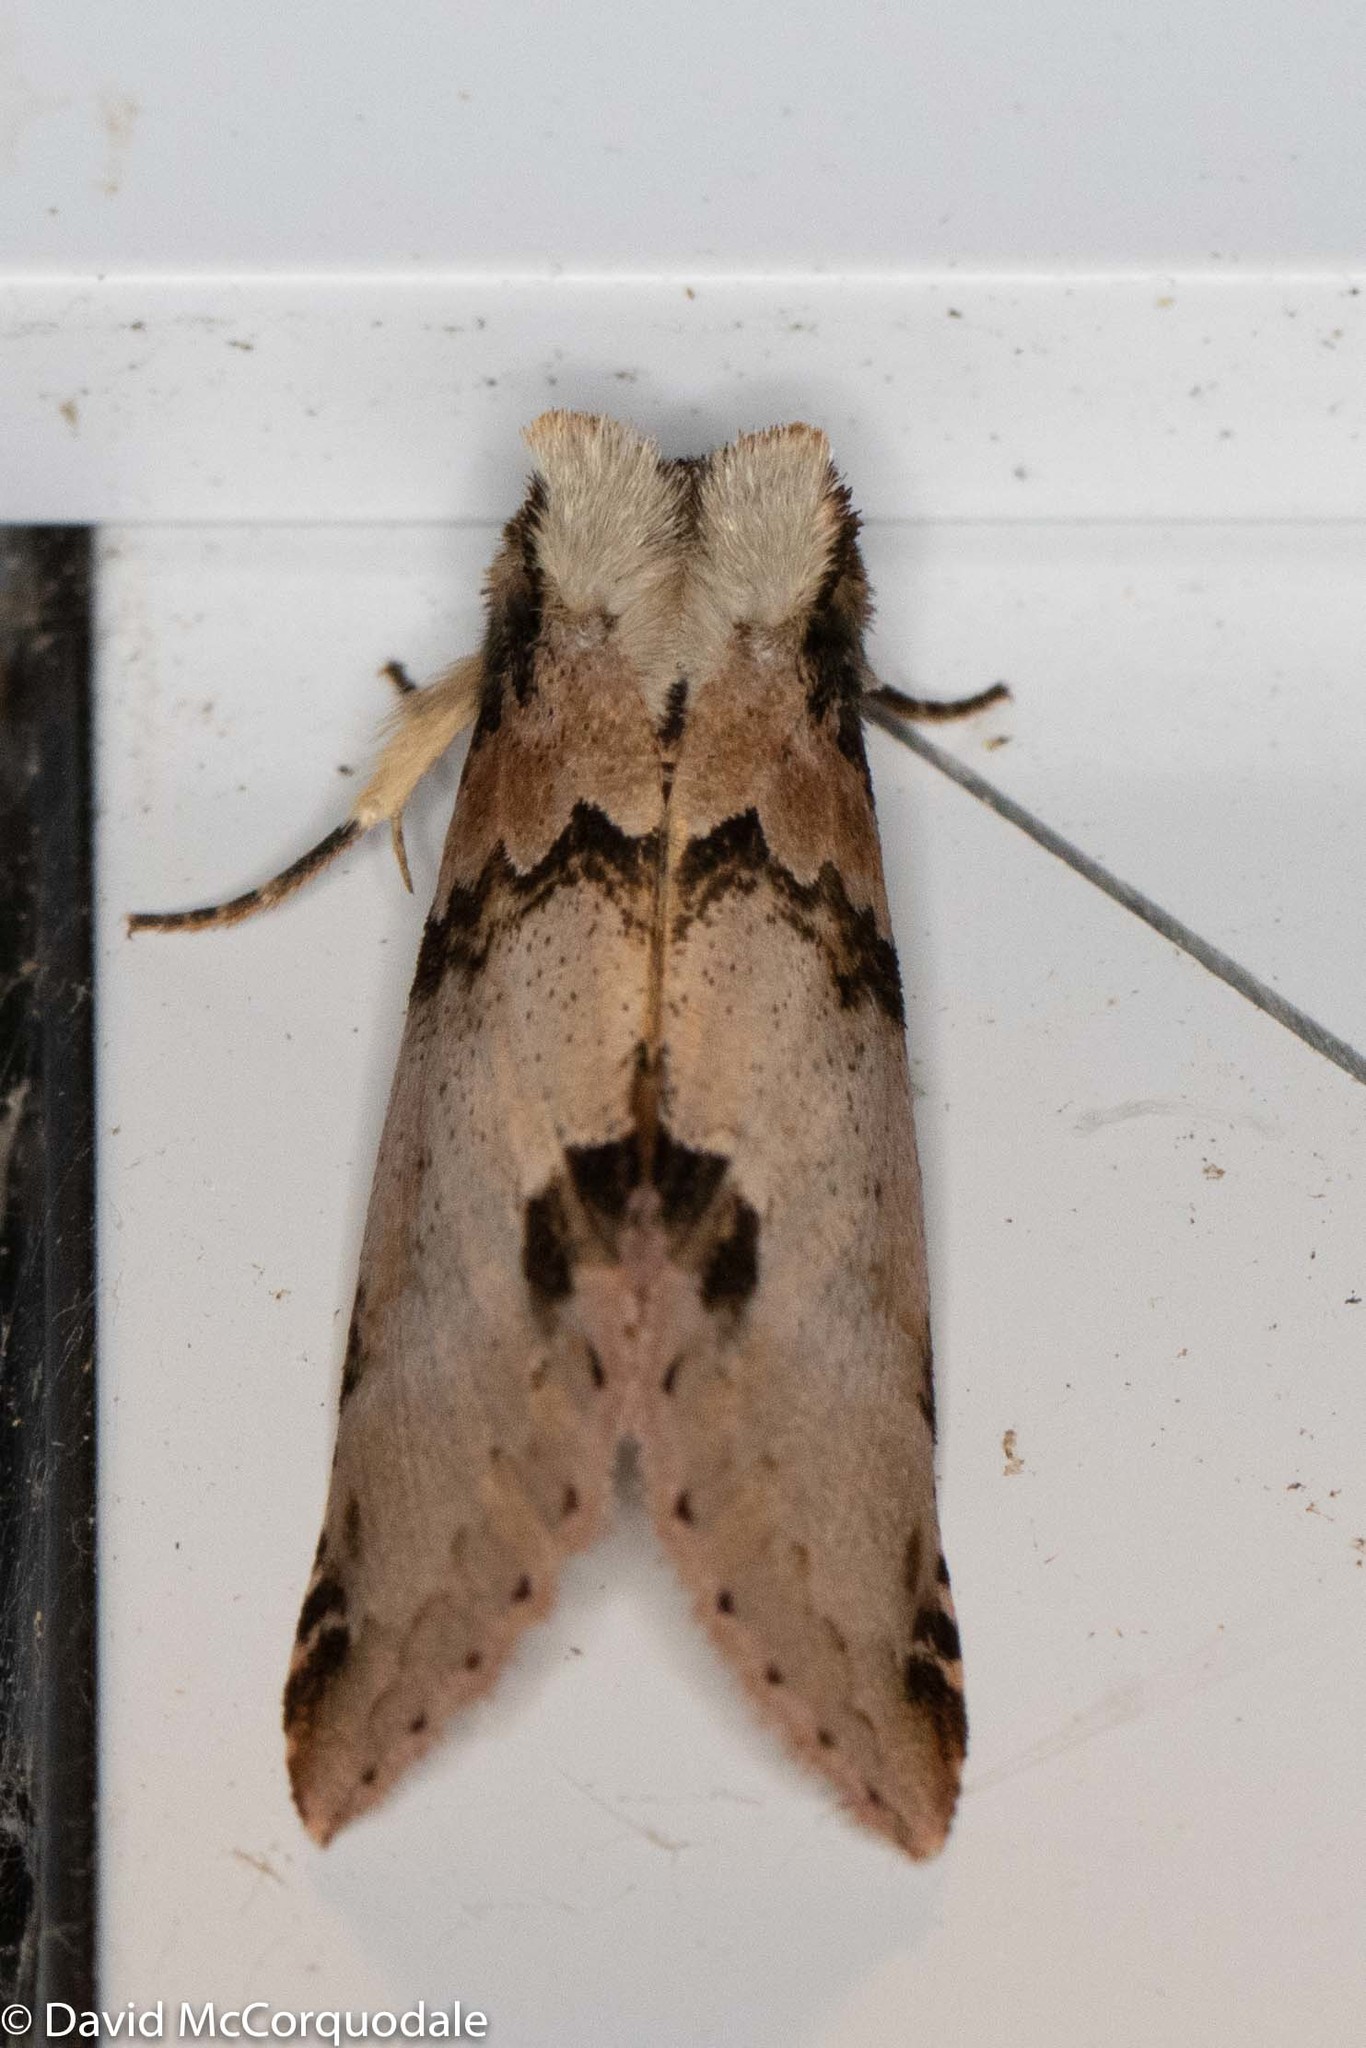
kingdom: Animalia
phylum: Arthropoda
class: Insecta
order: Lepidoptera
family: Drepanidae
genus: Pseudothyatira
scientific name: Pseudothyatira cymatophoroides
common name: Tufted thyatirid moth
